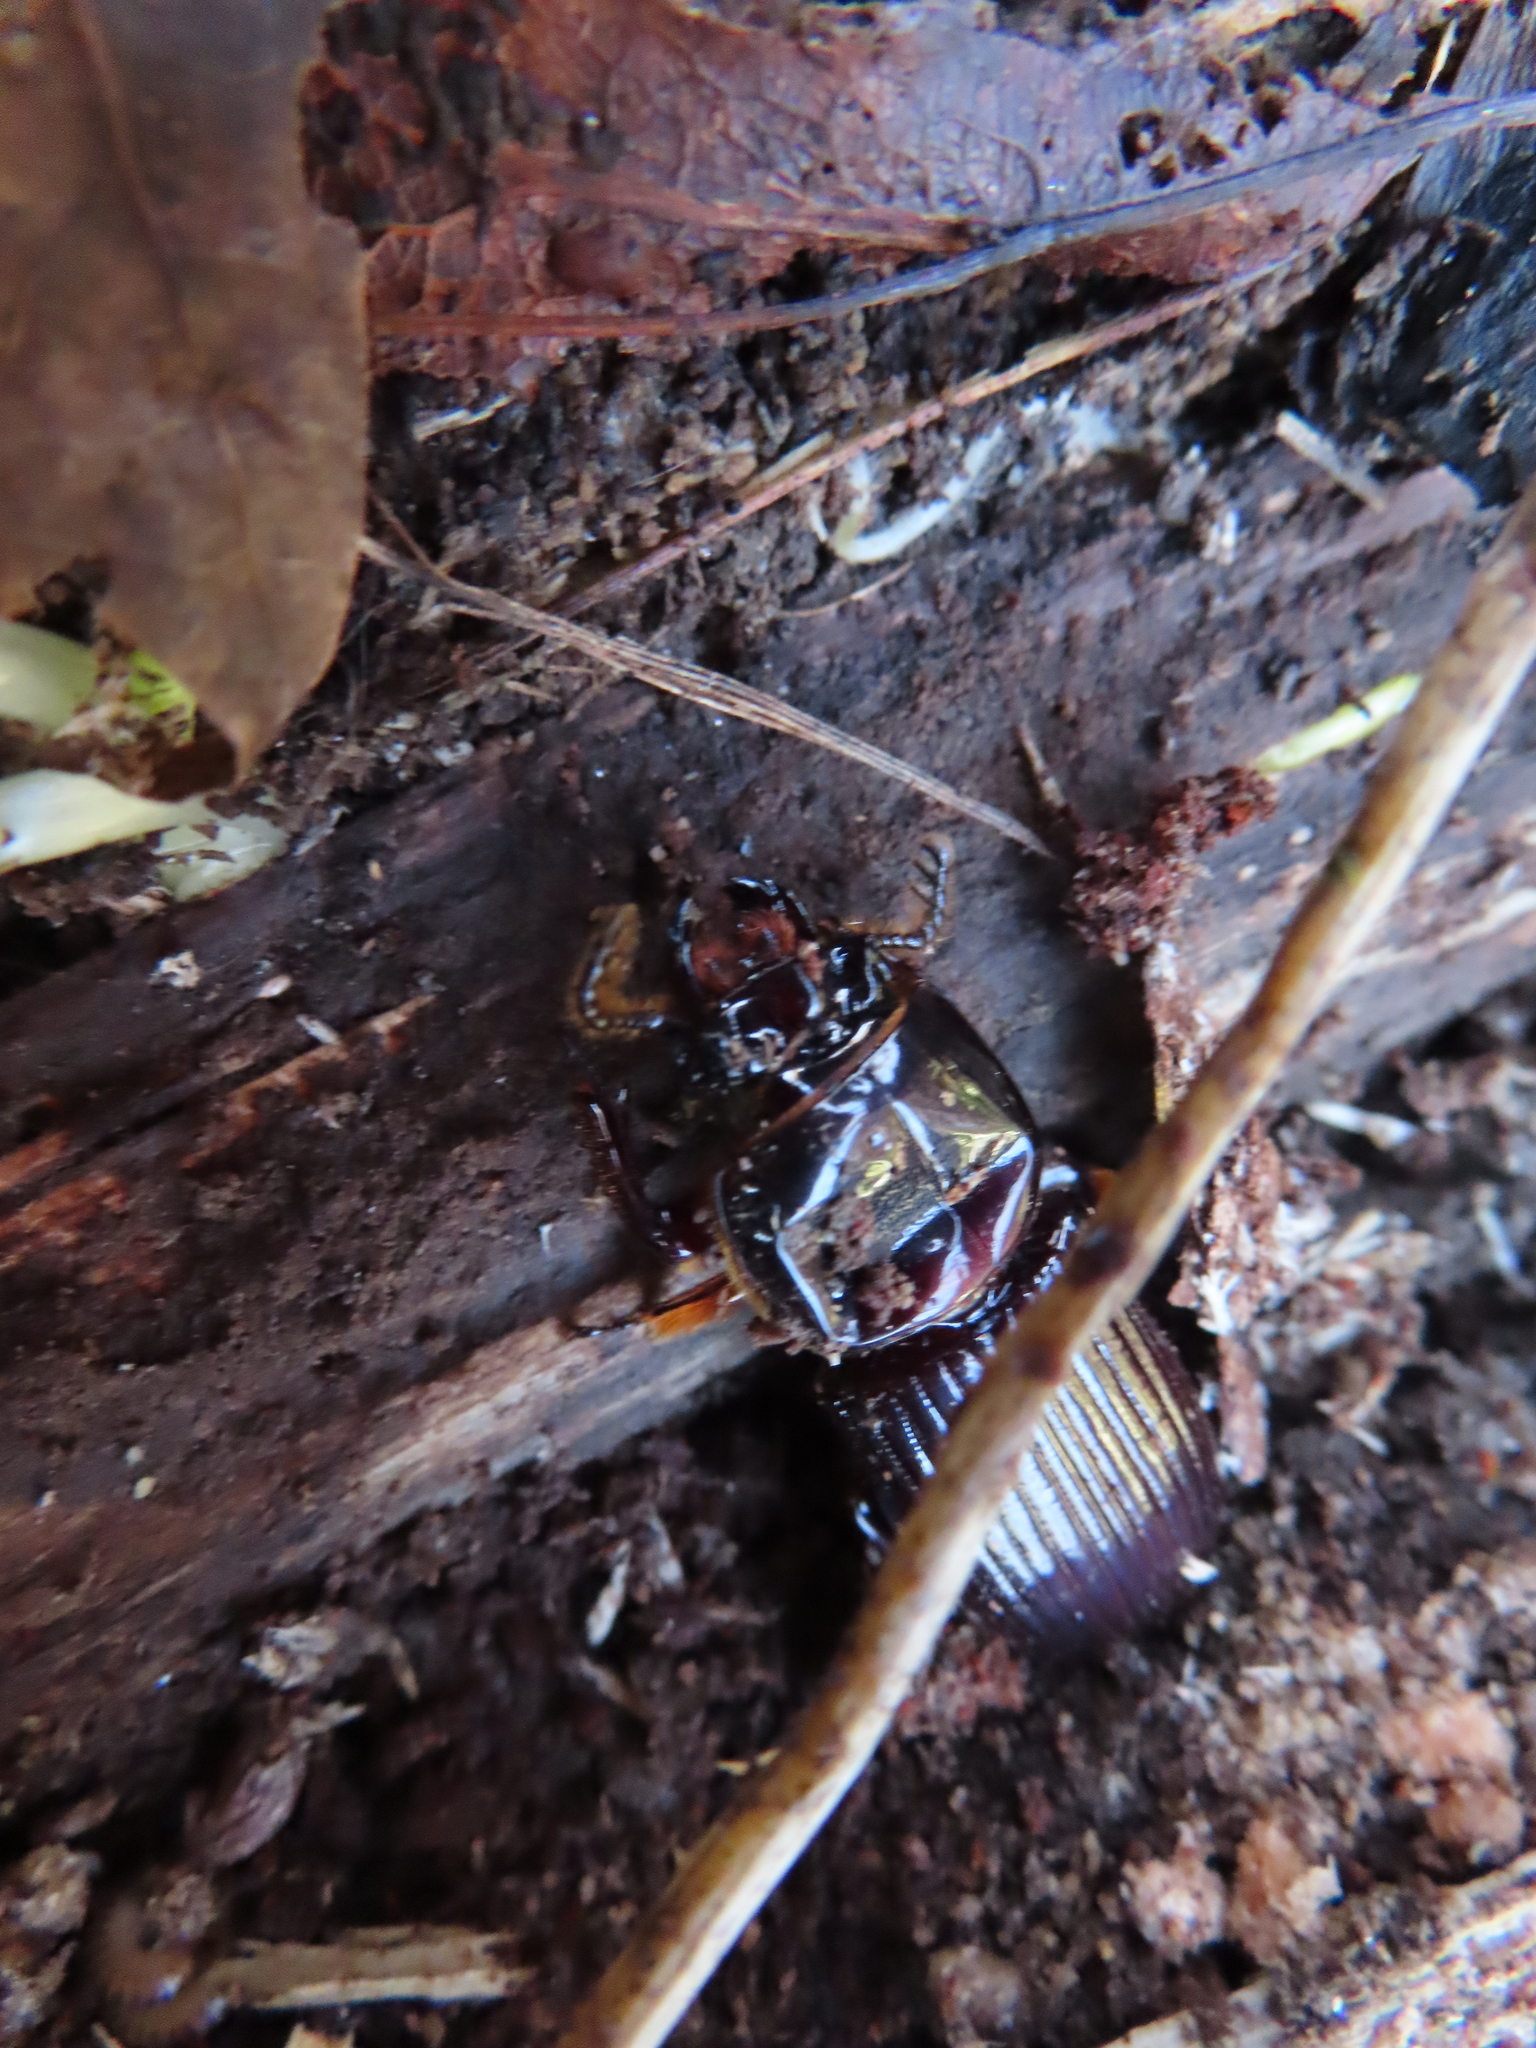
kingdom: Animalia
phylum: Arthropoda
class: Insecta
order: Coleoptera
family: Passalidae
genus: Odontotaenius
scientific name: Odontotaenius disjunctus
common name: Patent leather beetle
